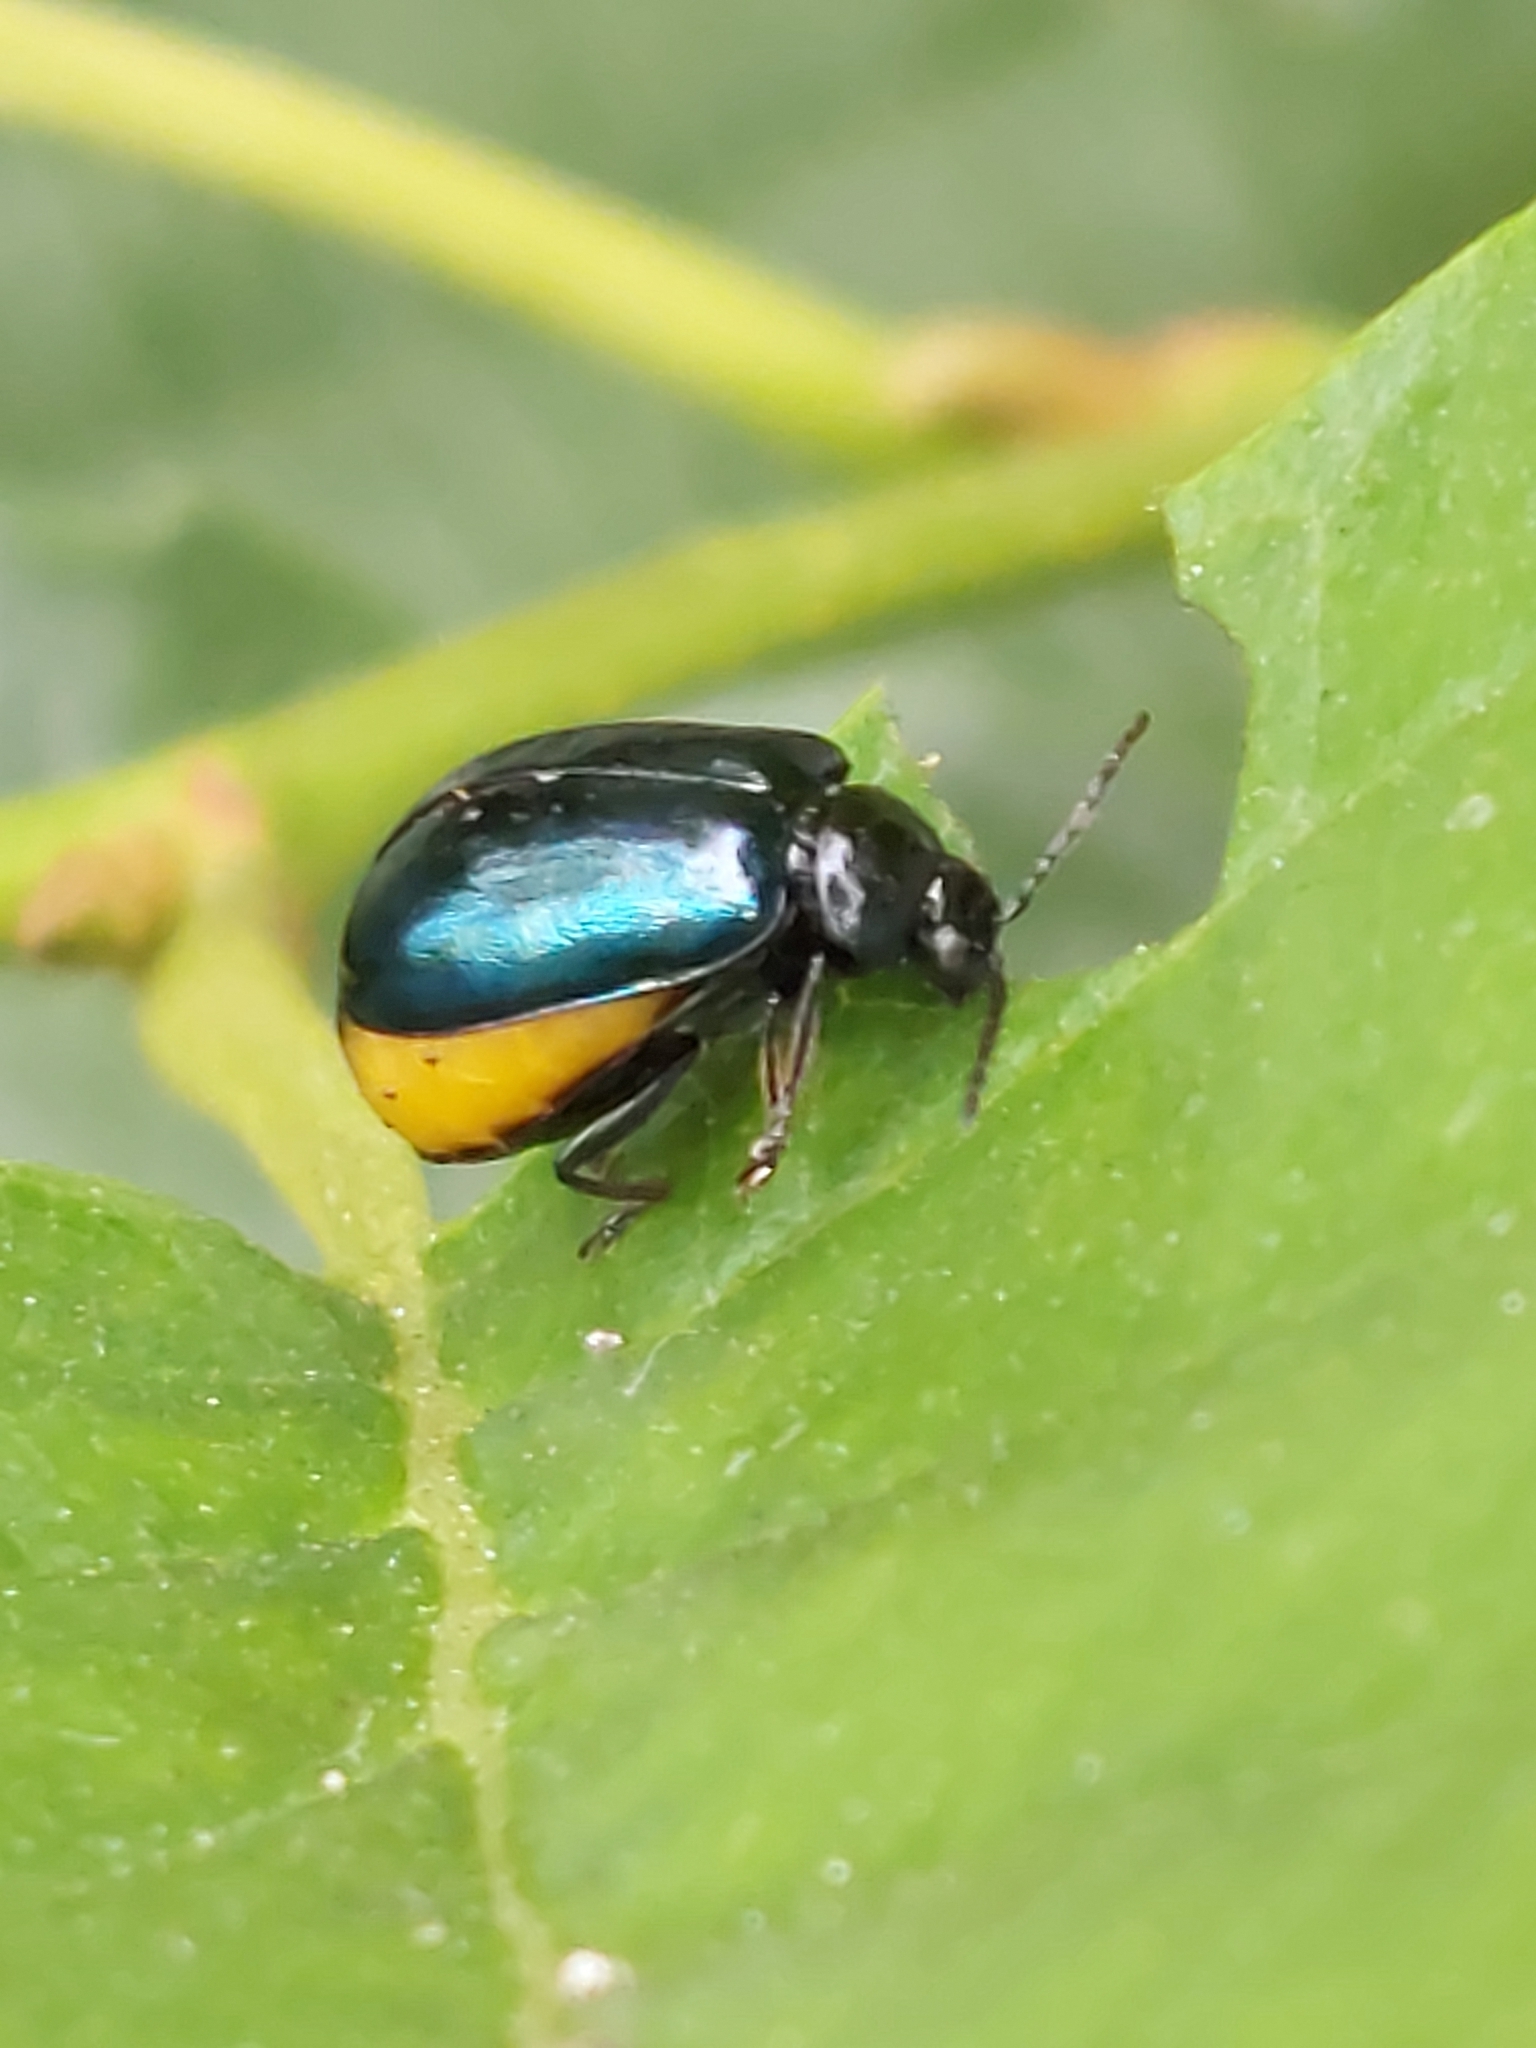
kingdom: Animalia
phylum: Arthropoda
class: Insecta
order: Coleoptera
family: Chrysomelidae
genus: Agelastica
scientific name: Agelastica alni
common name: Alder leaf beetle
